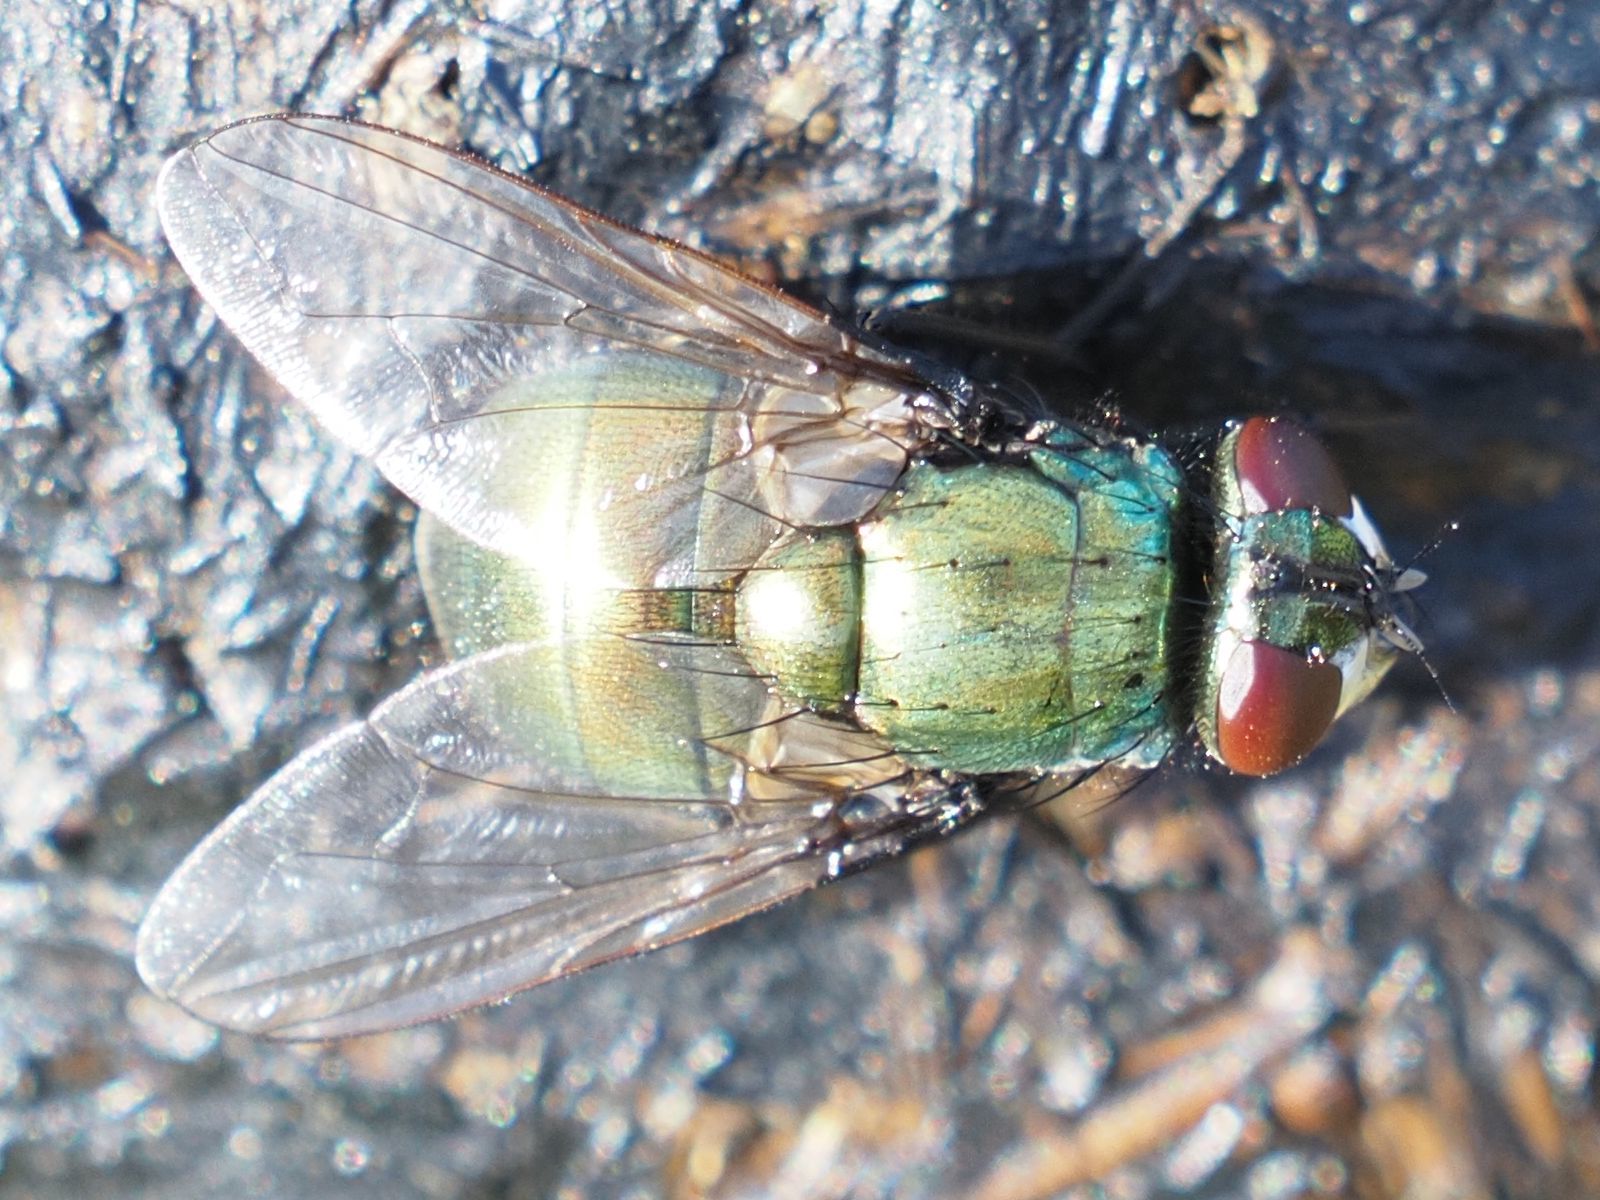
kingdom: Animalia
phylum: Arthropoda
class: Insecta
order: Diptera
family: Muscidae
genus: Neomyia
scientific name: Neomyia cornicina
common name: House fly
